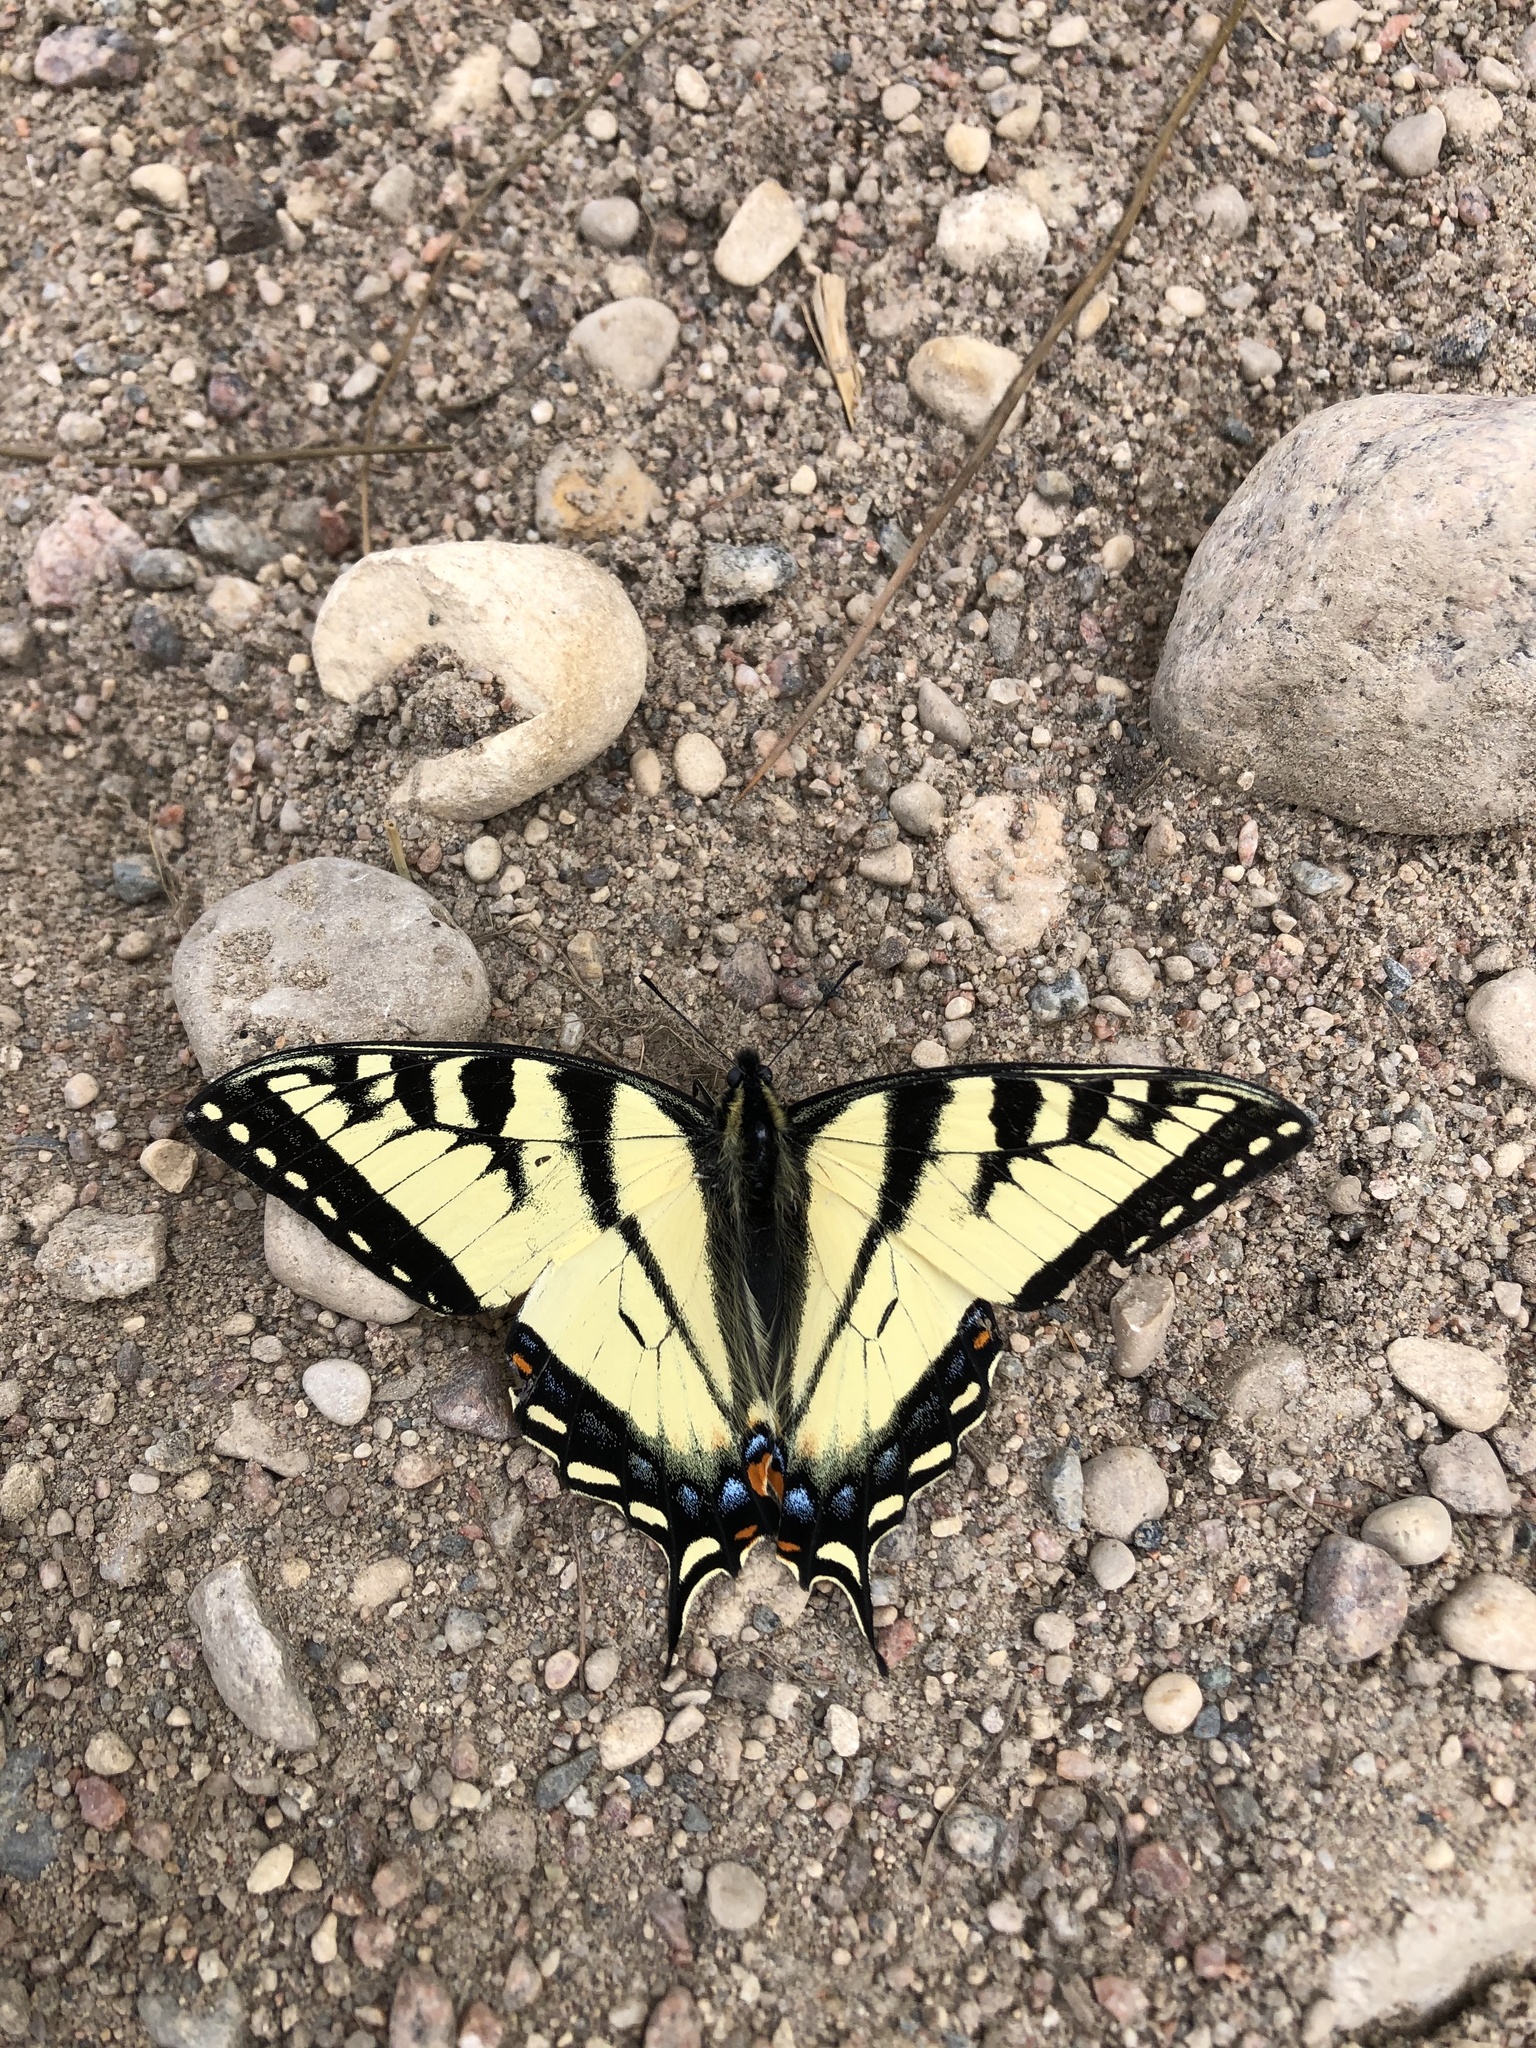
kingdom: Animalia
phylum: Arthropoda
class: Insecta
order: Lepidoptera
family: Papilionidae
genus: Papilio
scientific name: Papilio canadensis
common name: Canadian tiger swallowtail
